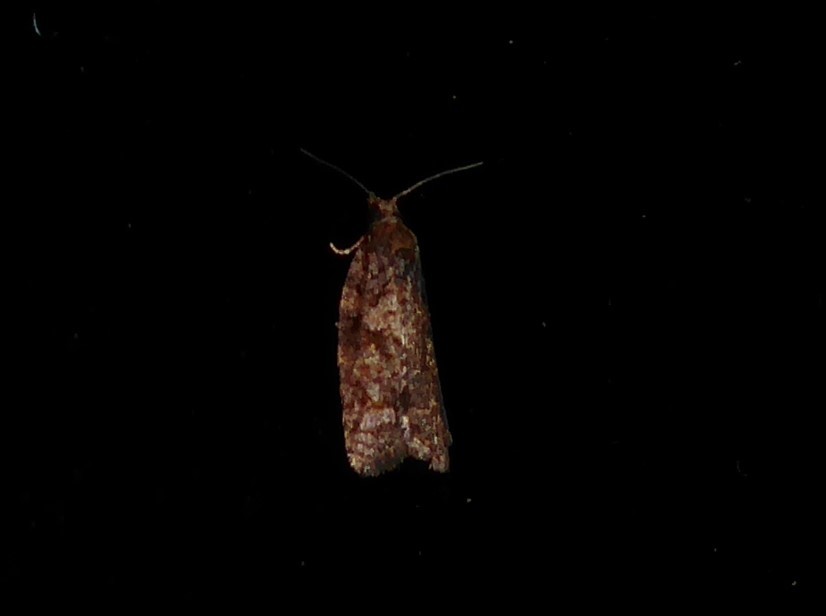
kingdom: Animalia
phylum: Arthropoda
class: Insecta
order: Lepidoptera
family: Tortricidae
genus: Capua
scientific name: Capua intractana
